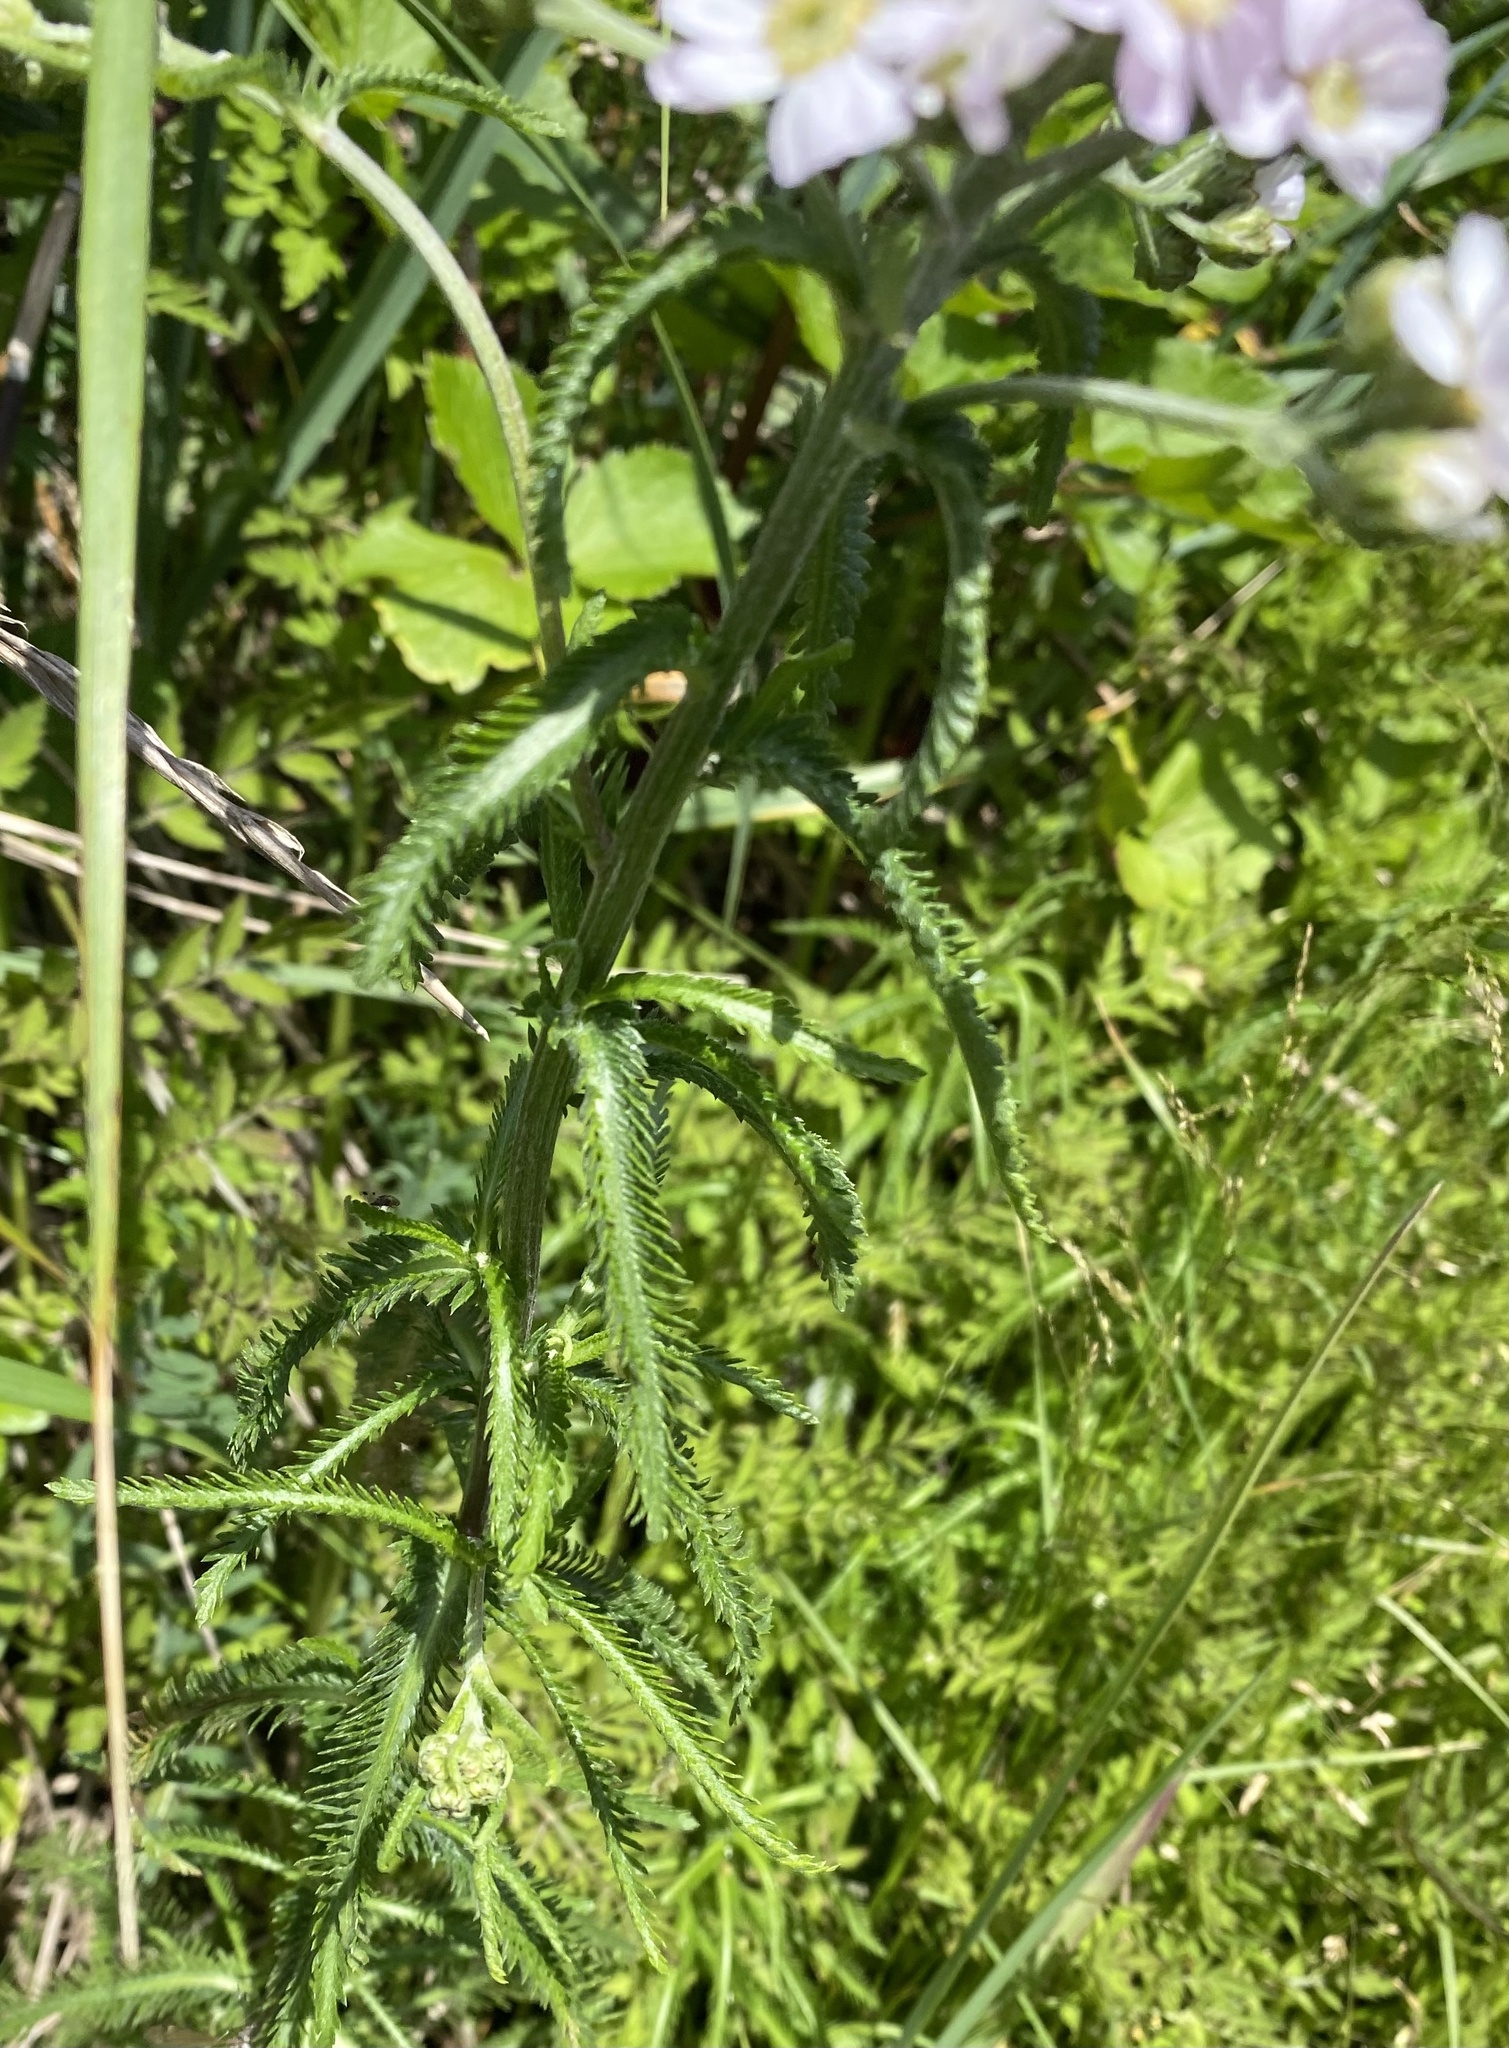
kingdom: Plantae
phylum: Tracheophyta
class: Magnoliopsida
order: Asterales
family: Asteraceae
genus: Achillea
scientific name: Achillea alpina
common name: Siberian yarrow
